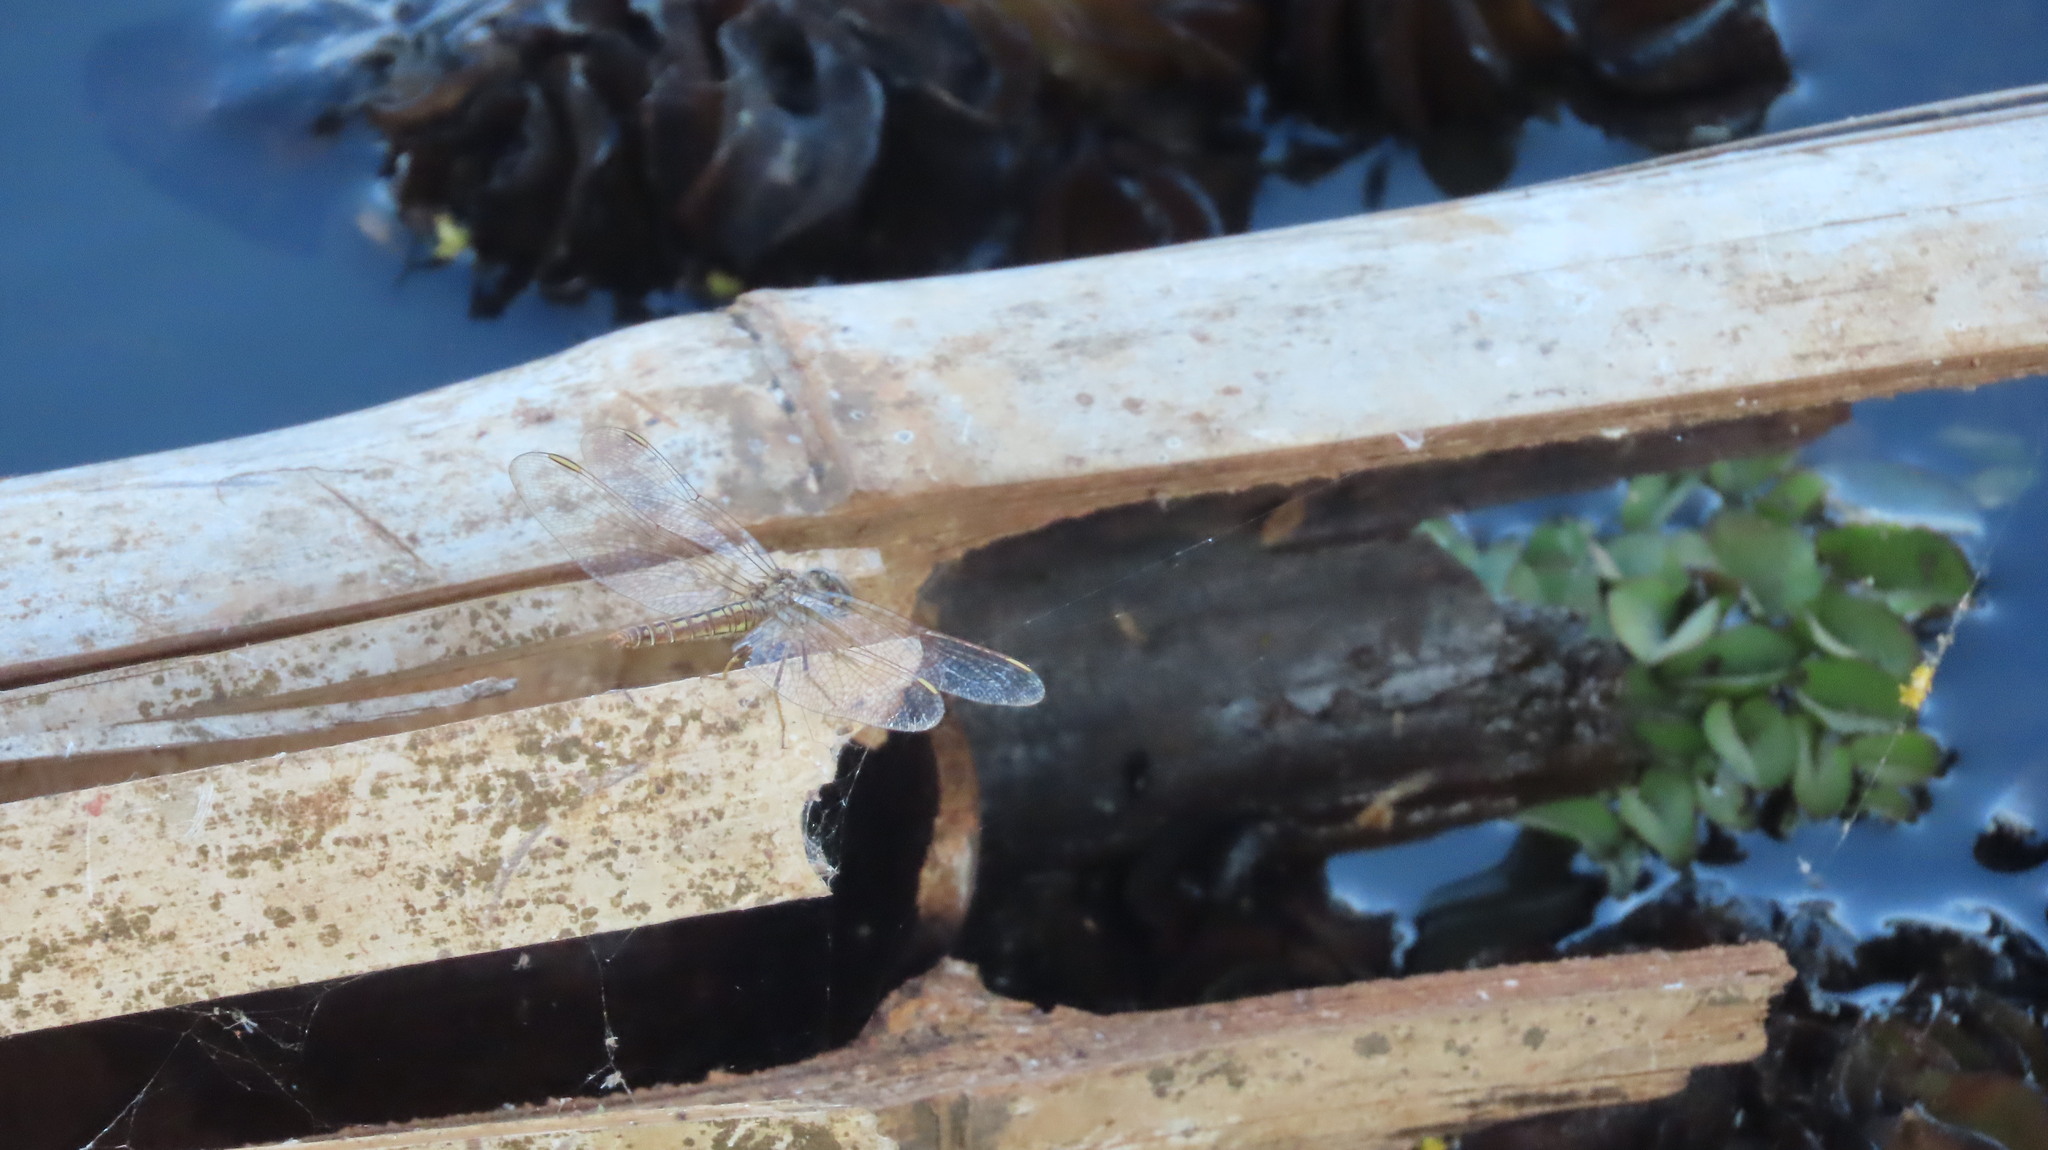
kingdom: Animalia
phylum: Arthropoda
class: Insecta
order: Odonata
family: Libellulidae
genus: Brachythemis
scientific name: Brachythemis contaminata
